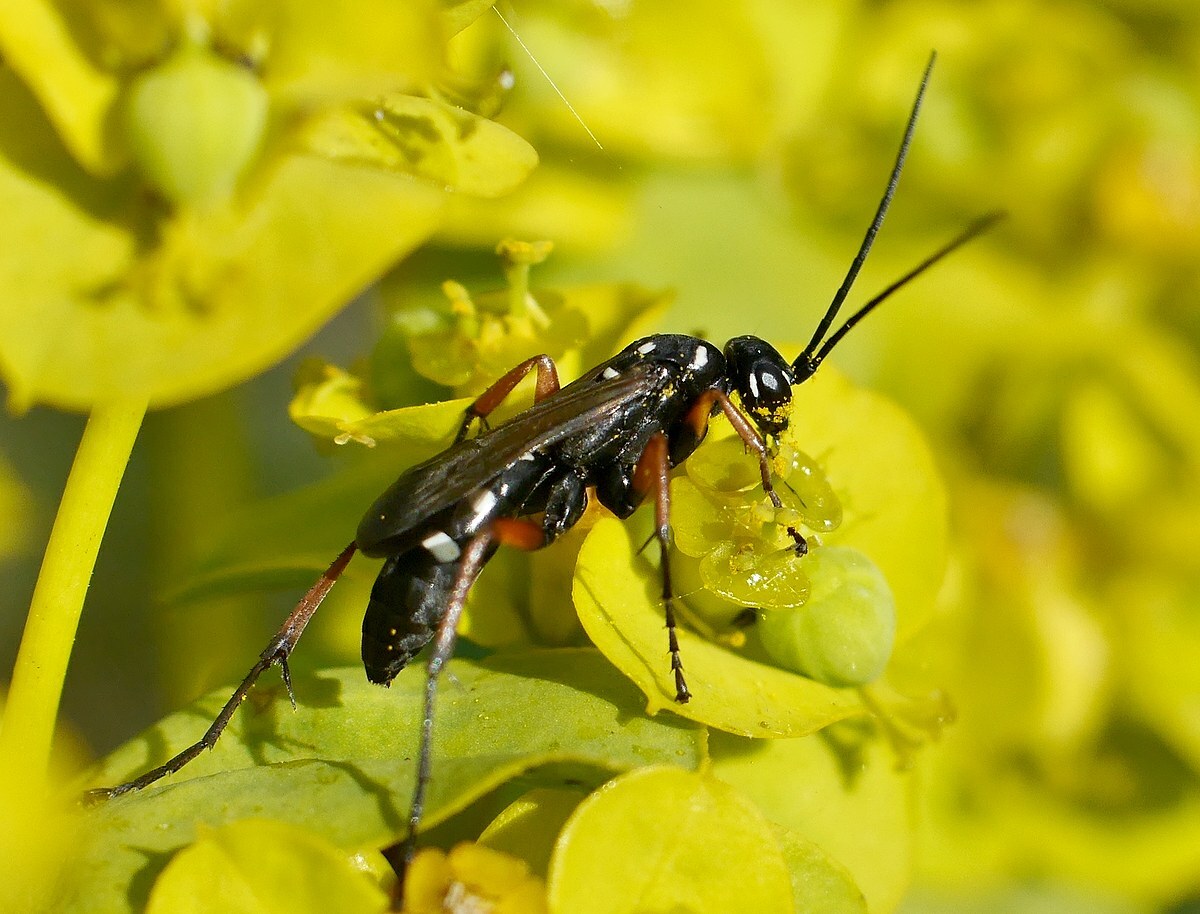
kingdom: Animalia
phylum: Arthropoda
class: Insecta
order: Hymenoptera
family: Pompilidae
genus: Cryptocheilus
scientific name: Cryptocheilus variabilis
